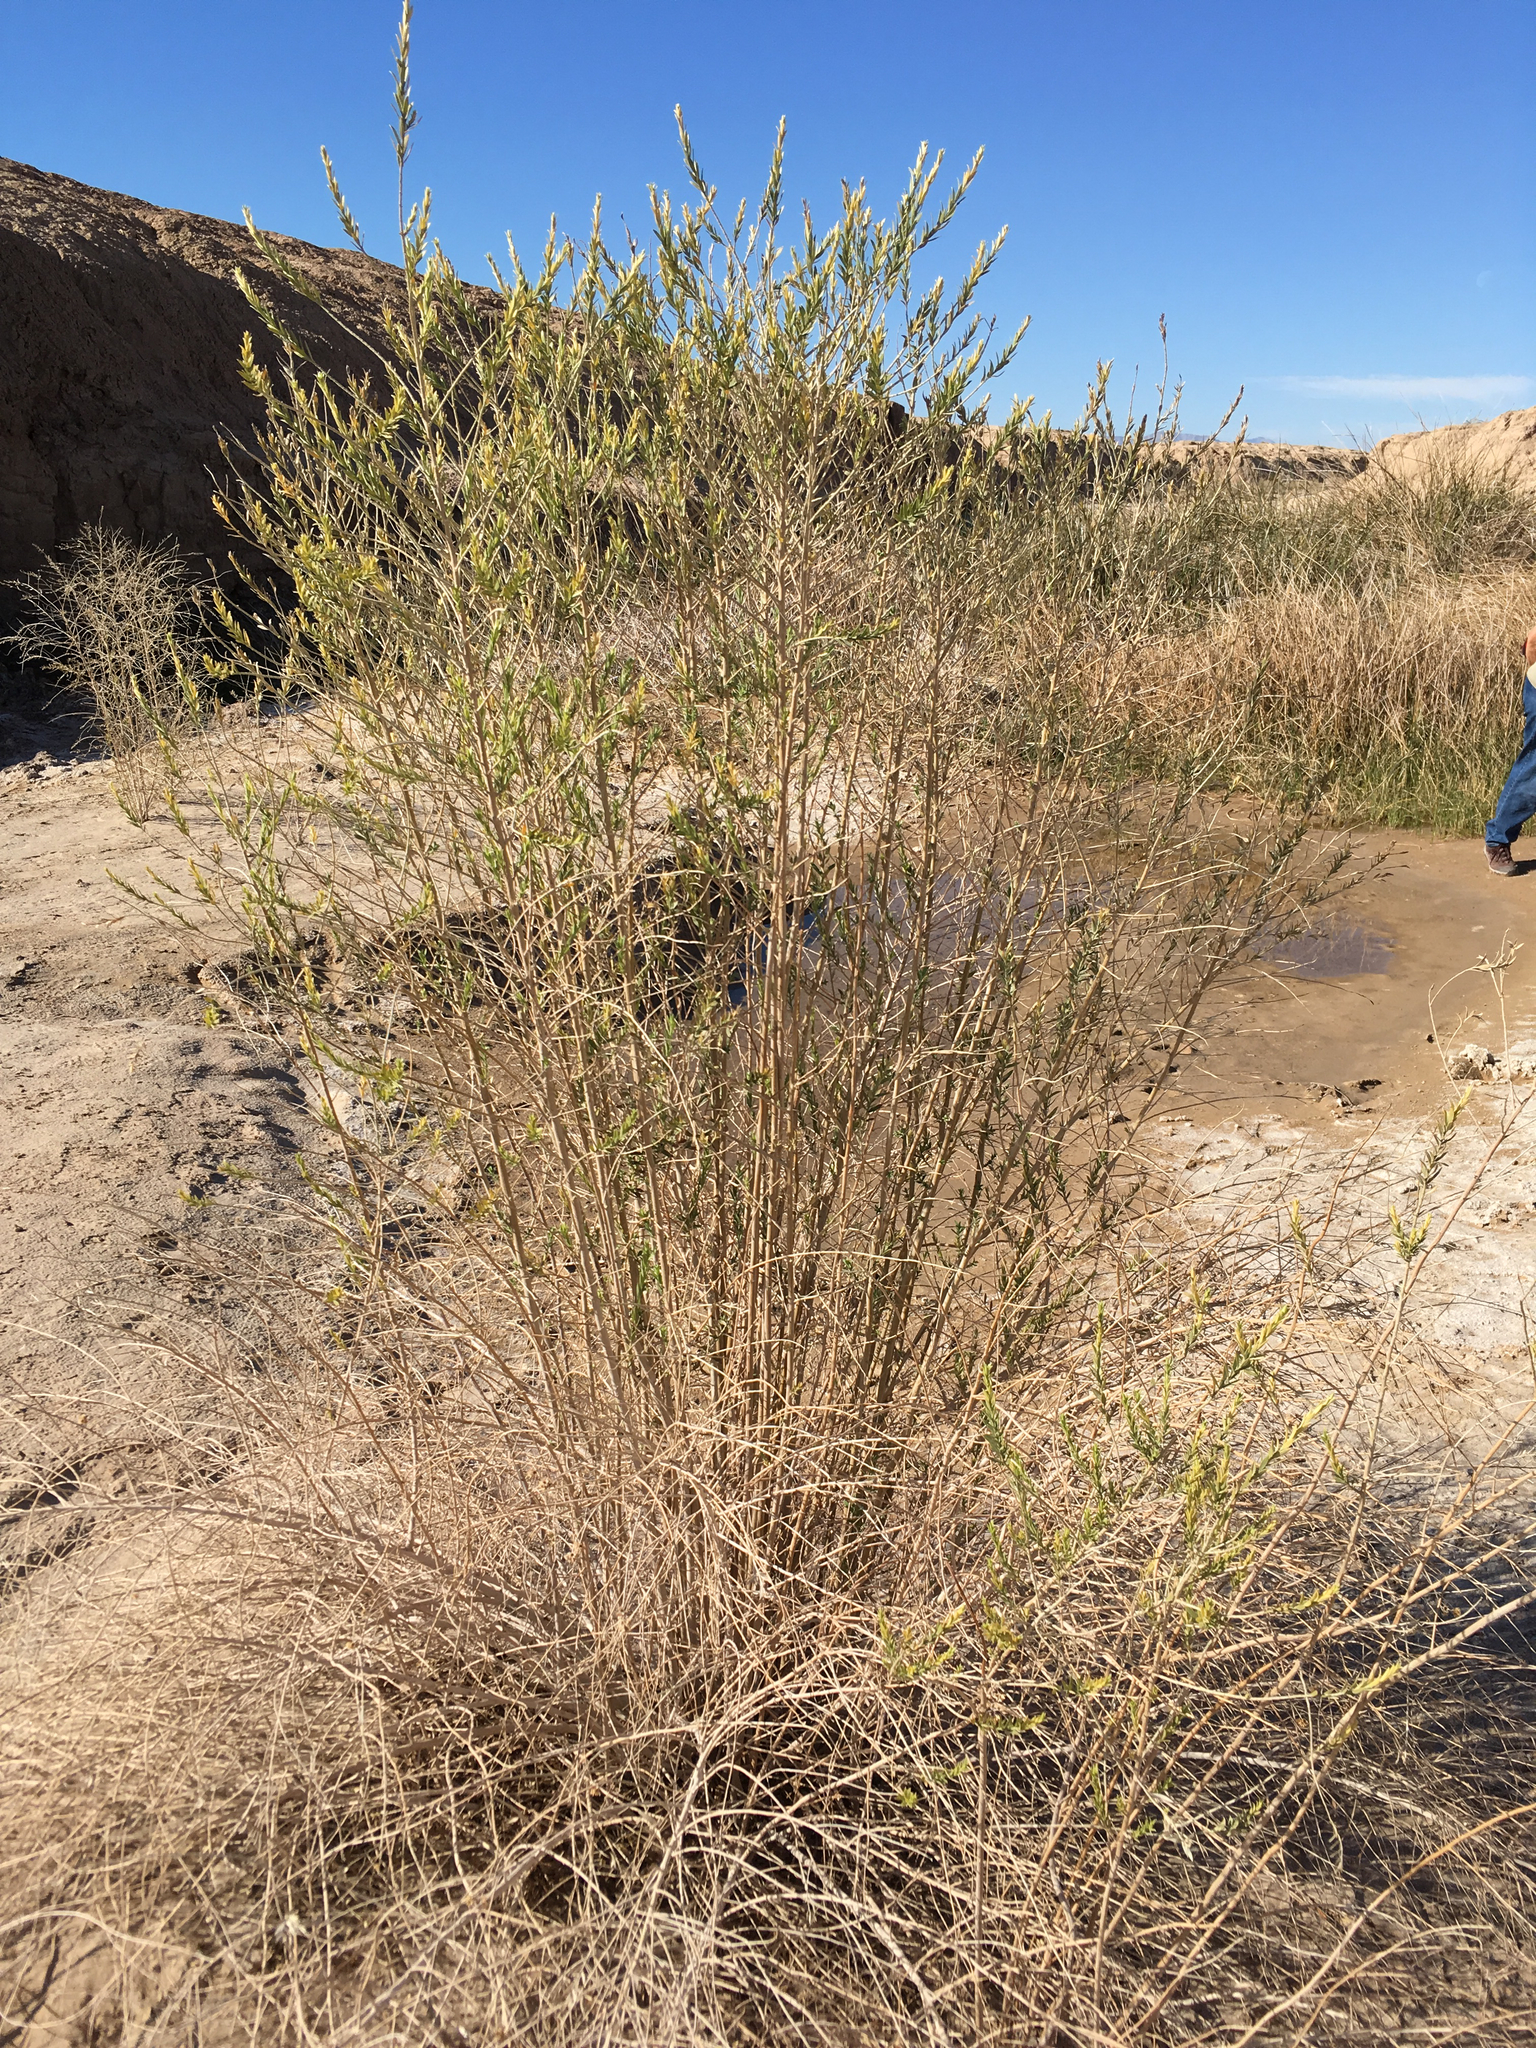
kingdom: Plantae
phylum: Tracheophyta
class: Magnoliopsida
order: Asterales
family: Asteraceae
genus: Pluchea
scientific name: Pluchea sericea
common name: Arrow-weed
